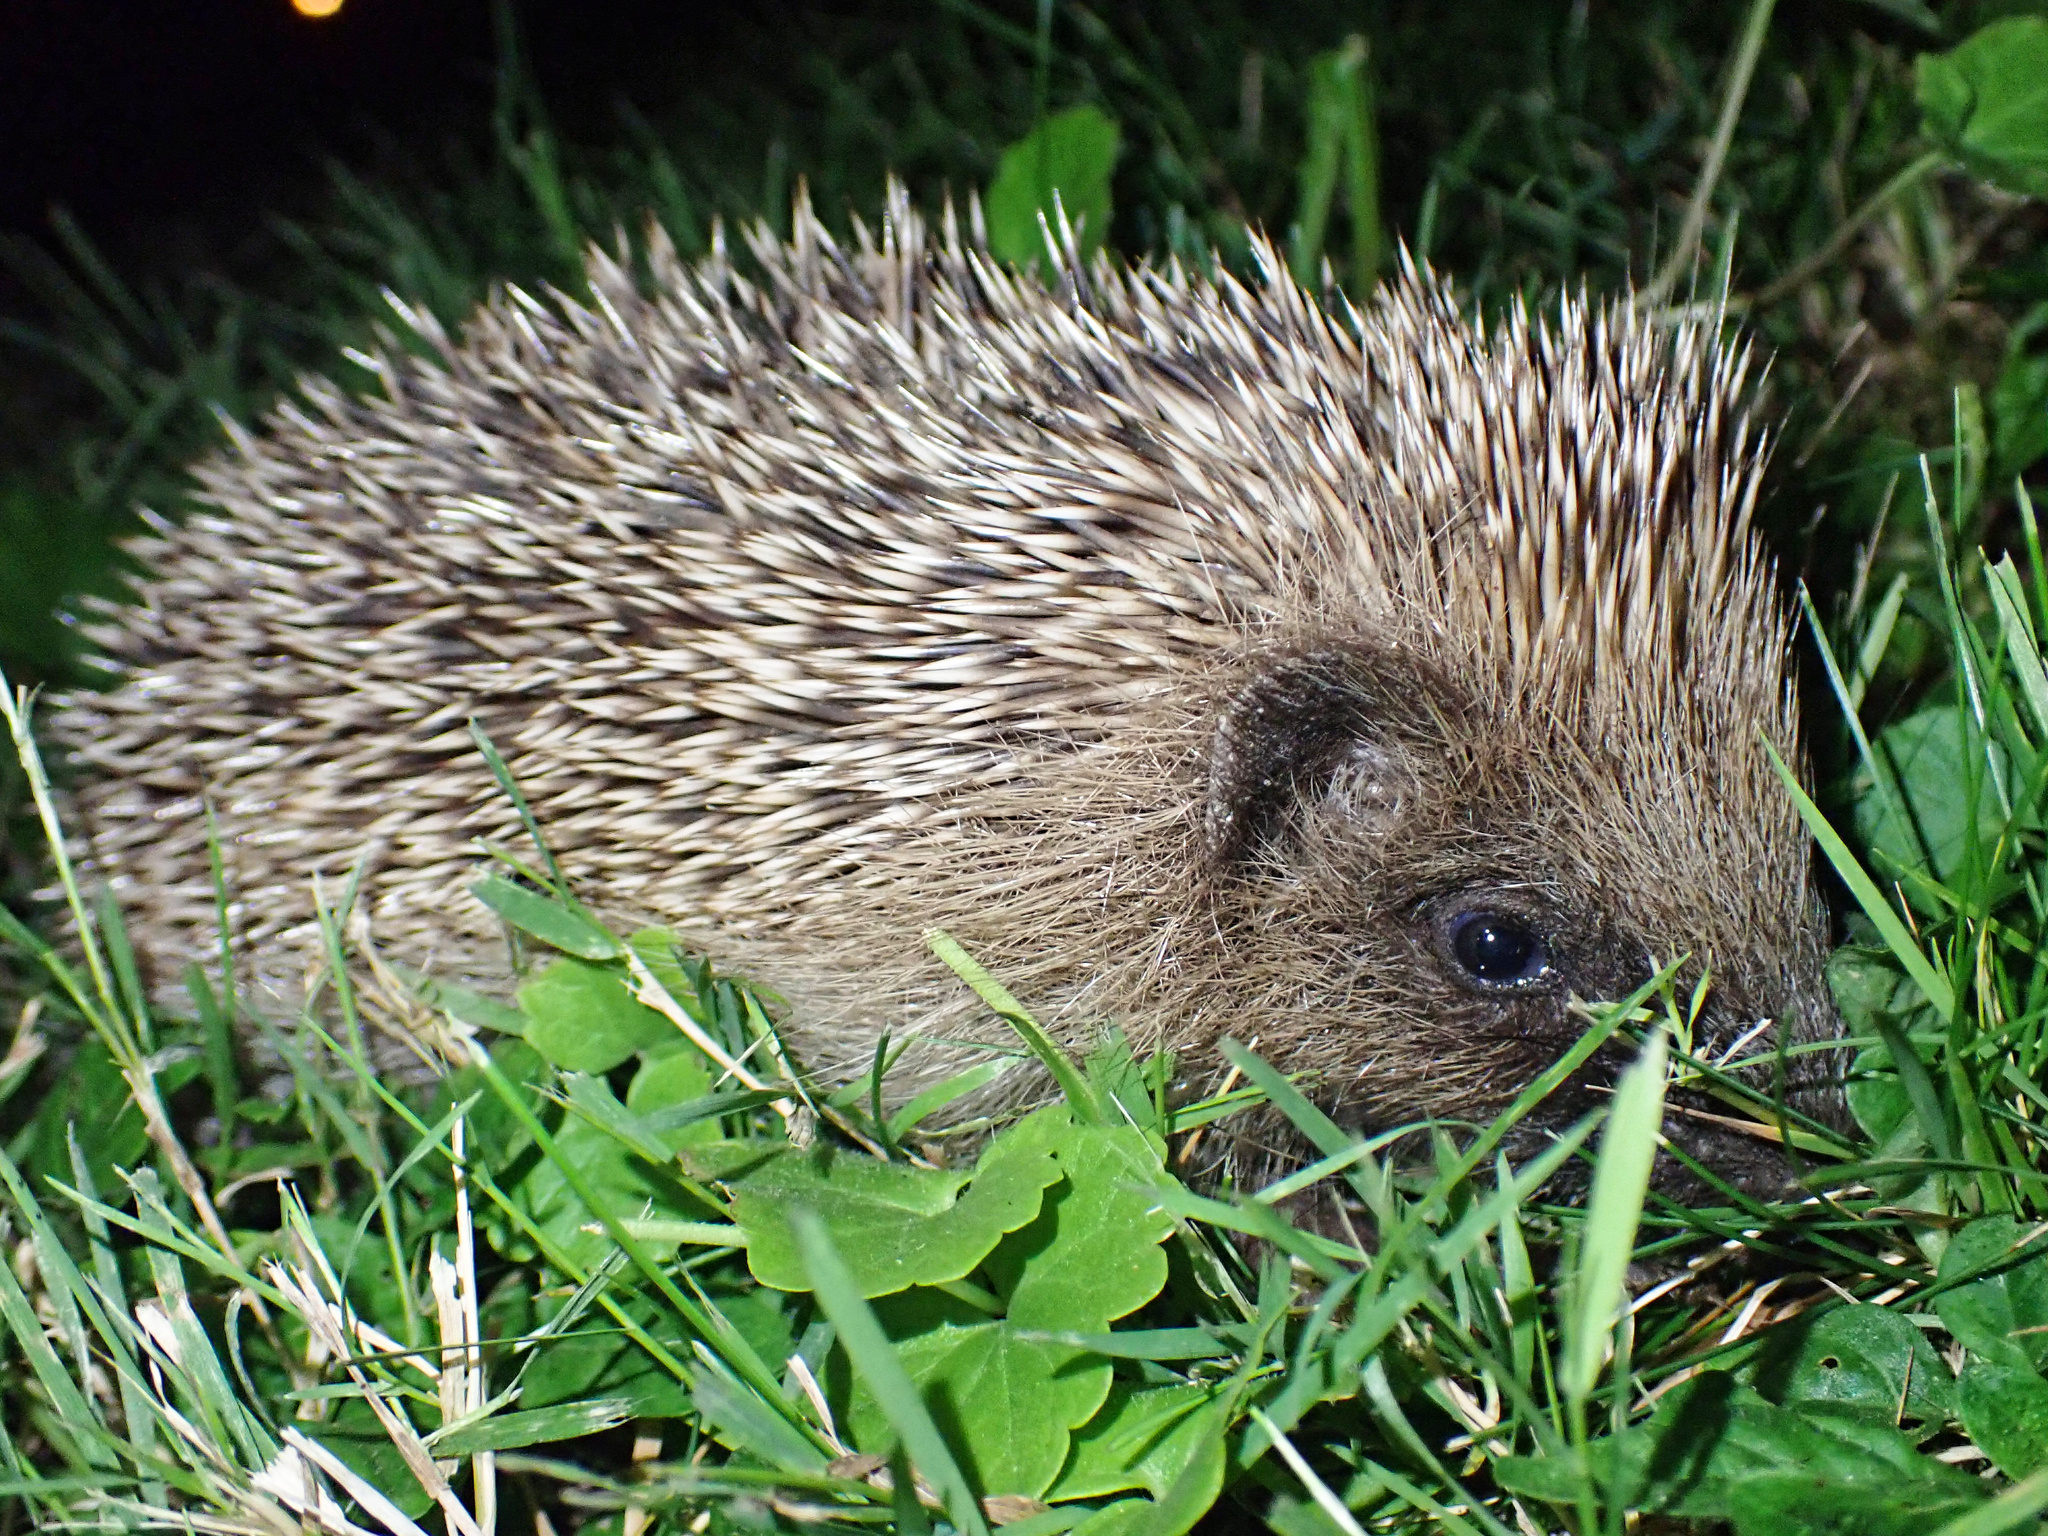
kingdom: Animalia
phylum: Chordata
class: Mammalia
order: Erinaceomorpha
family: Erinaceidae
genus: Erinaceus
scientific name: Erinaceus europaeus
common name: West european hedgehog
